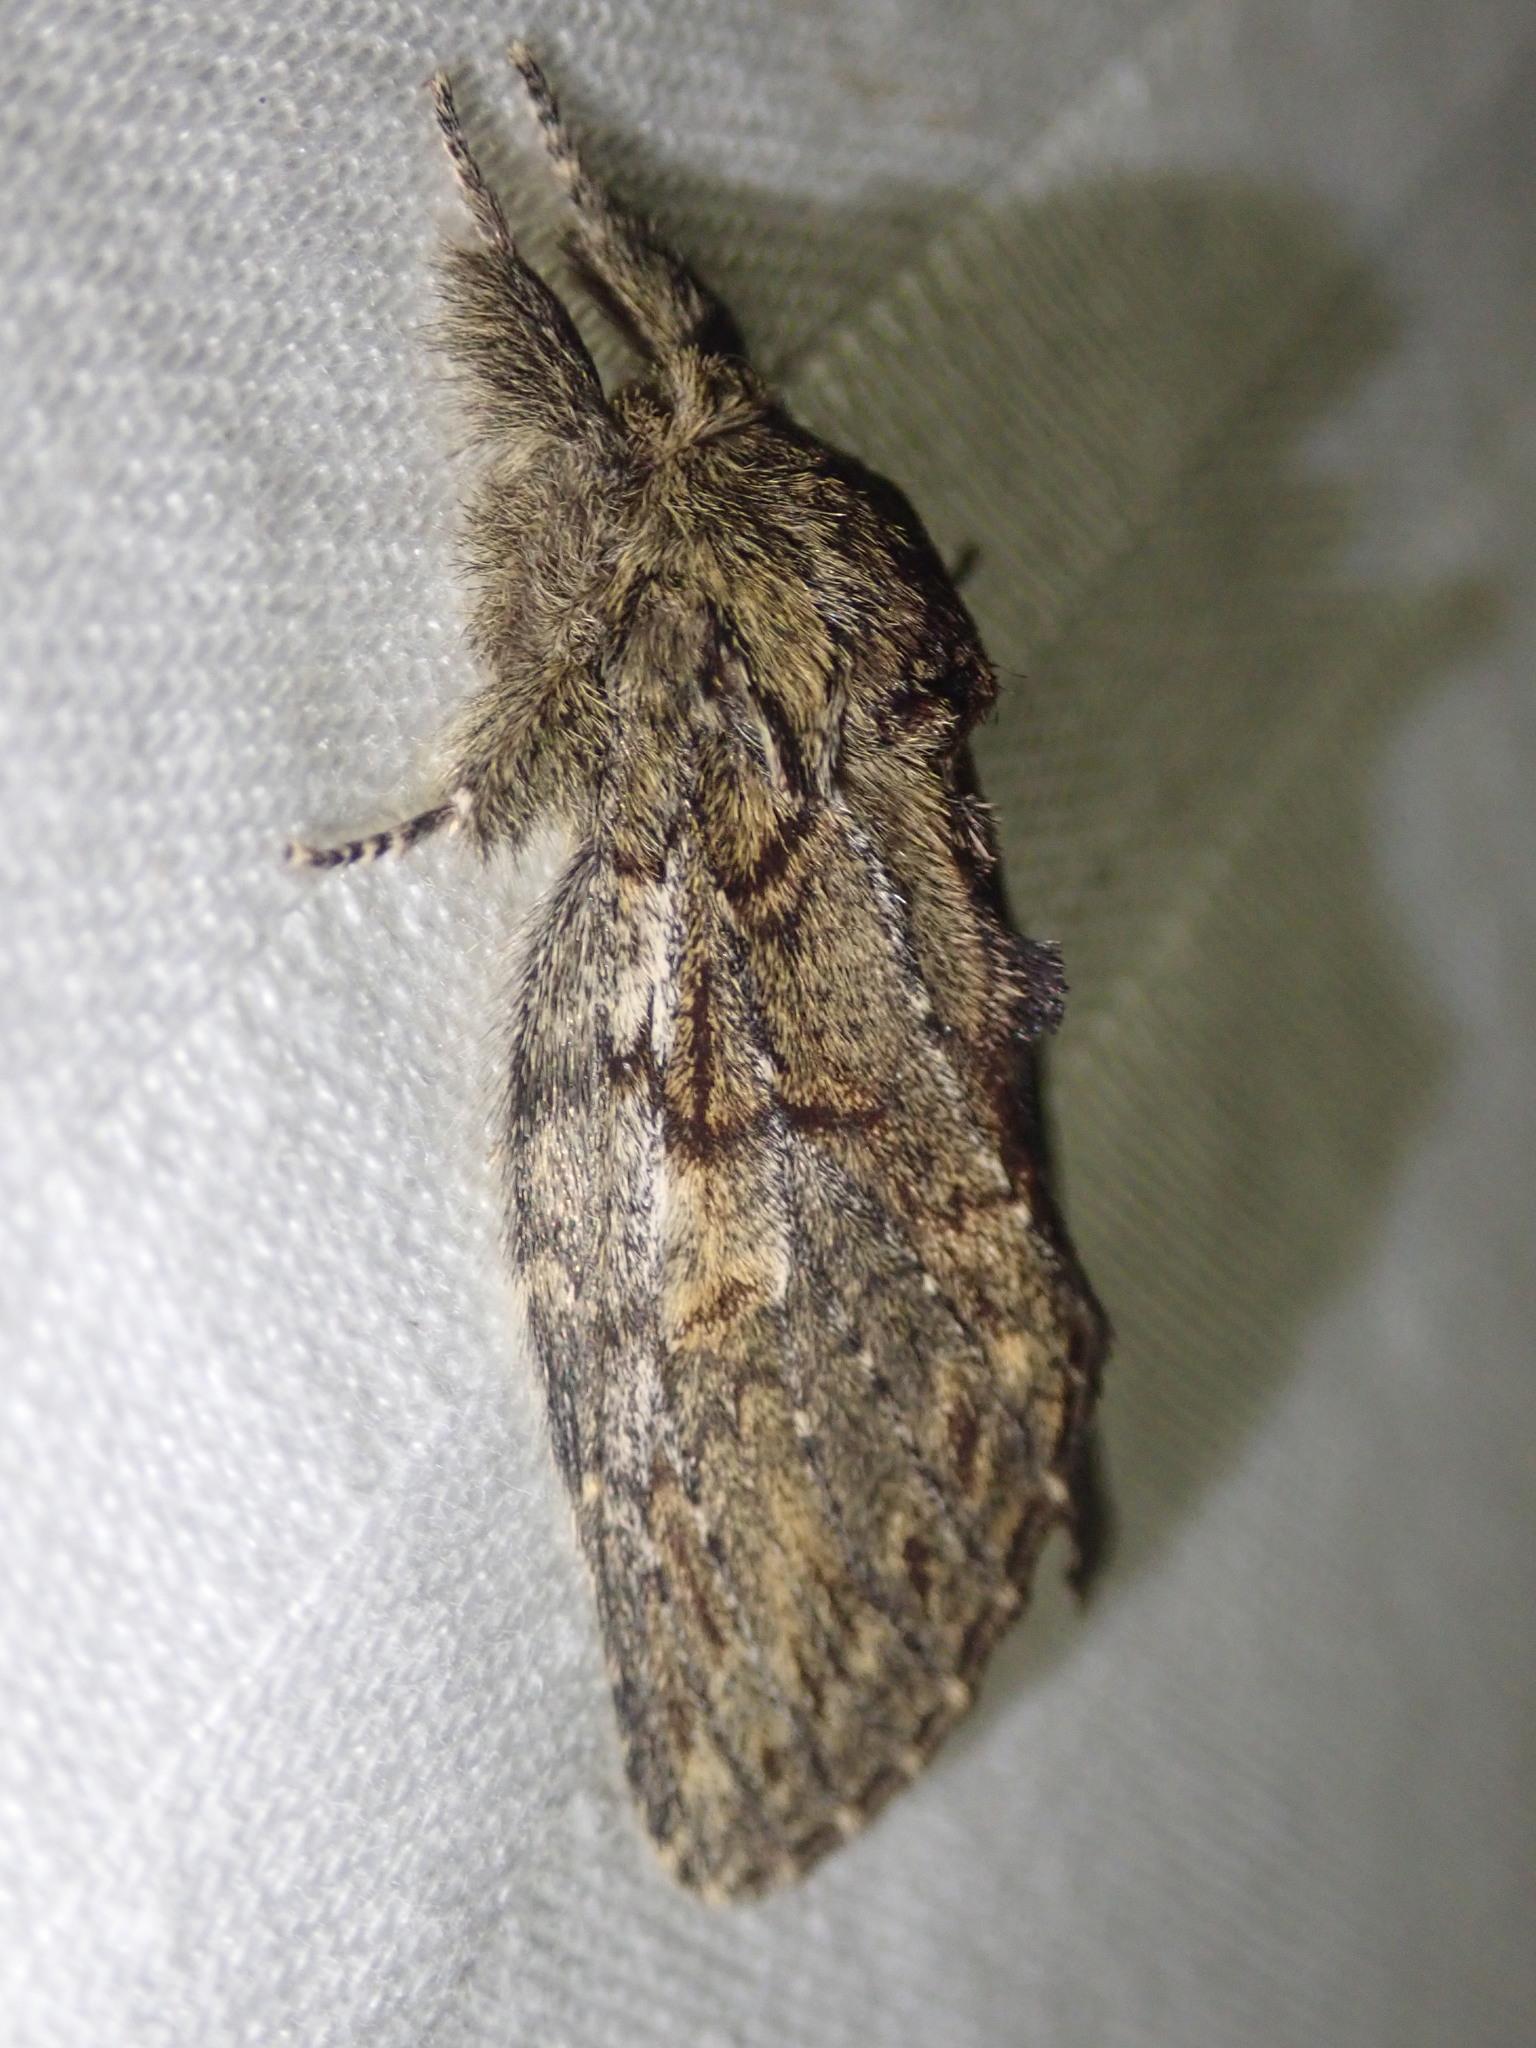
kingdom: Animalia
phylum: Arthropoda
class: Insecta
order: Lepidoptera
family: Notodontidae
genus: Peridea
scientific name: Peridea anceps
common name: Great prominent
